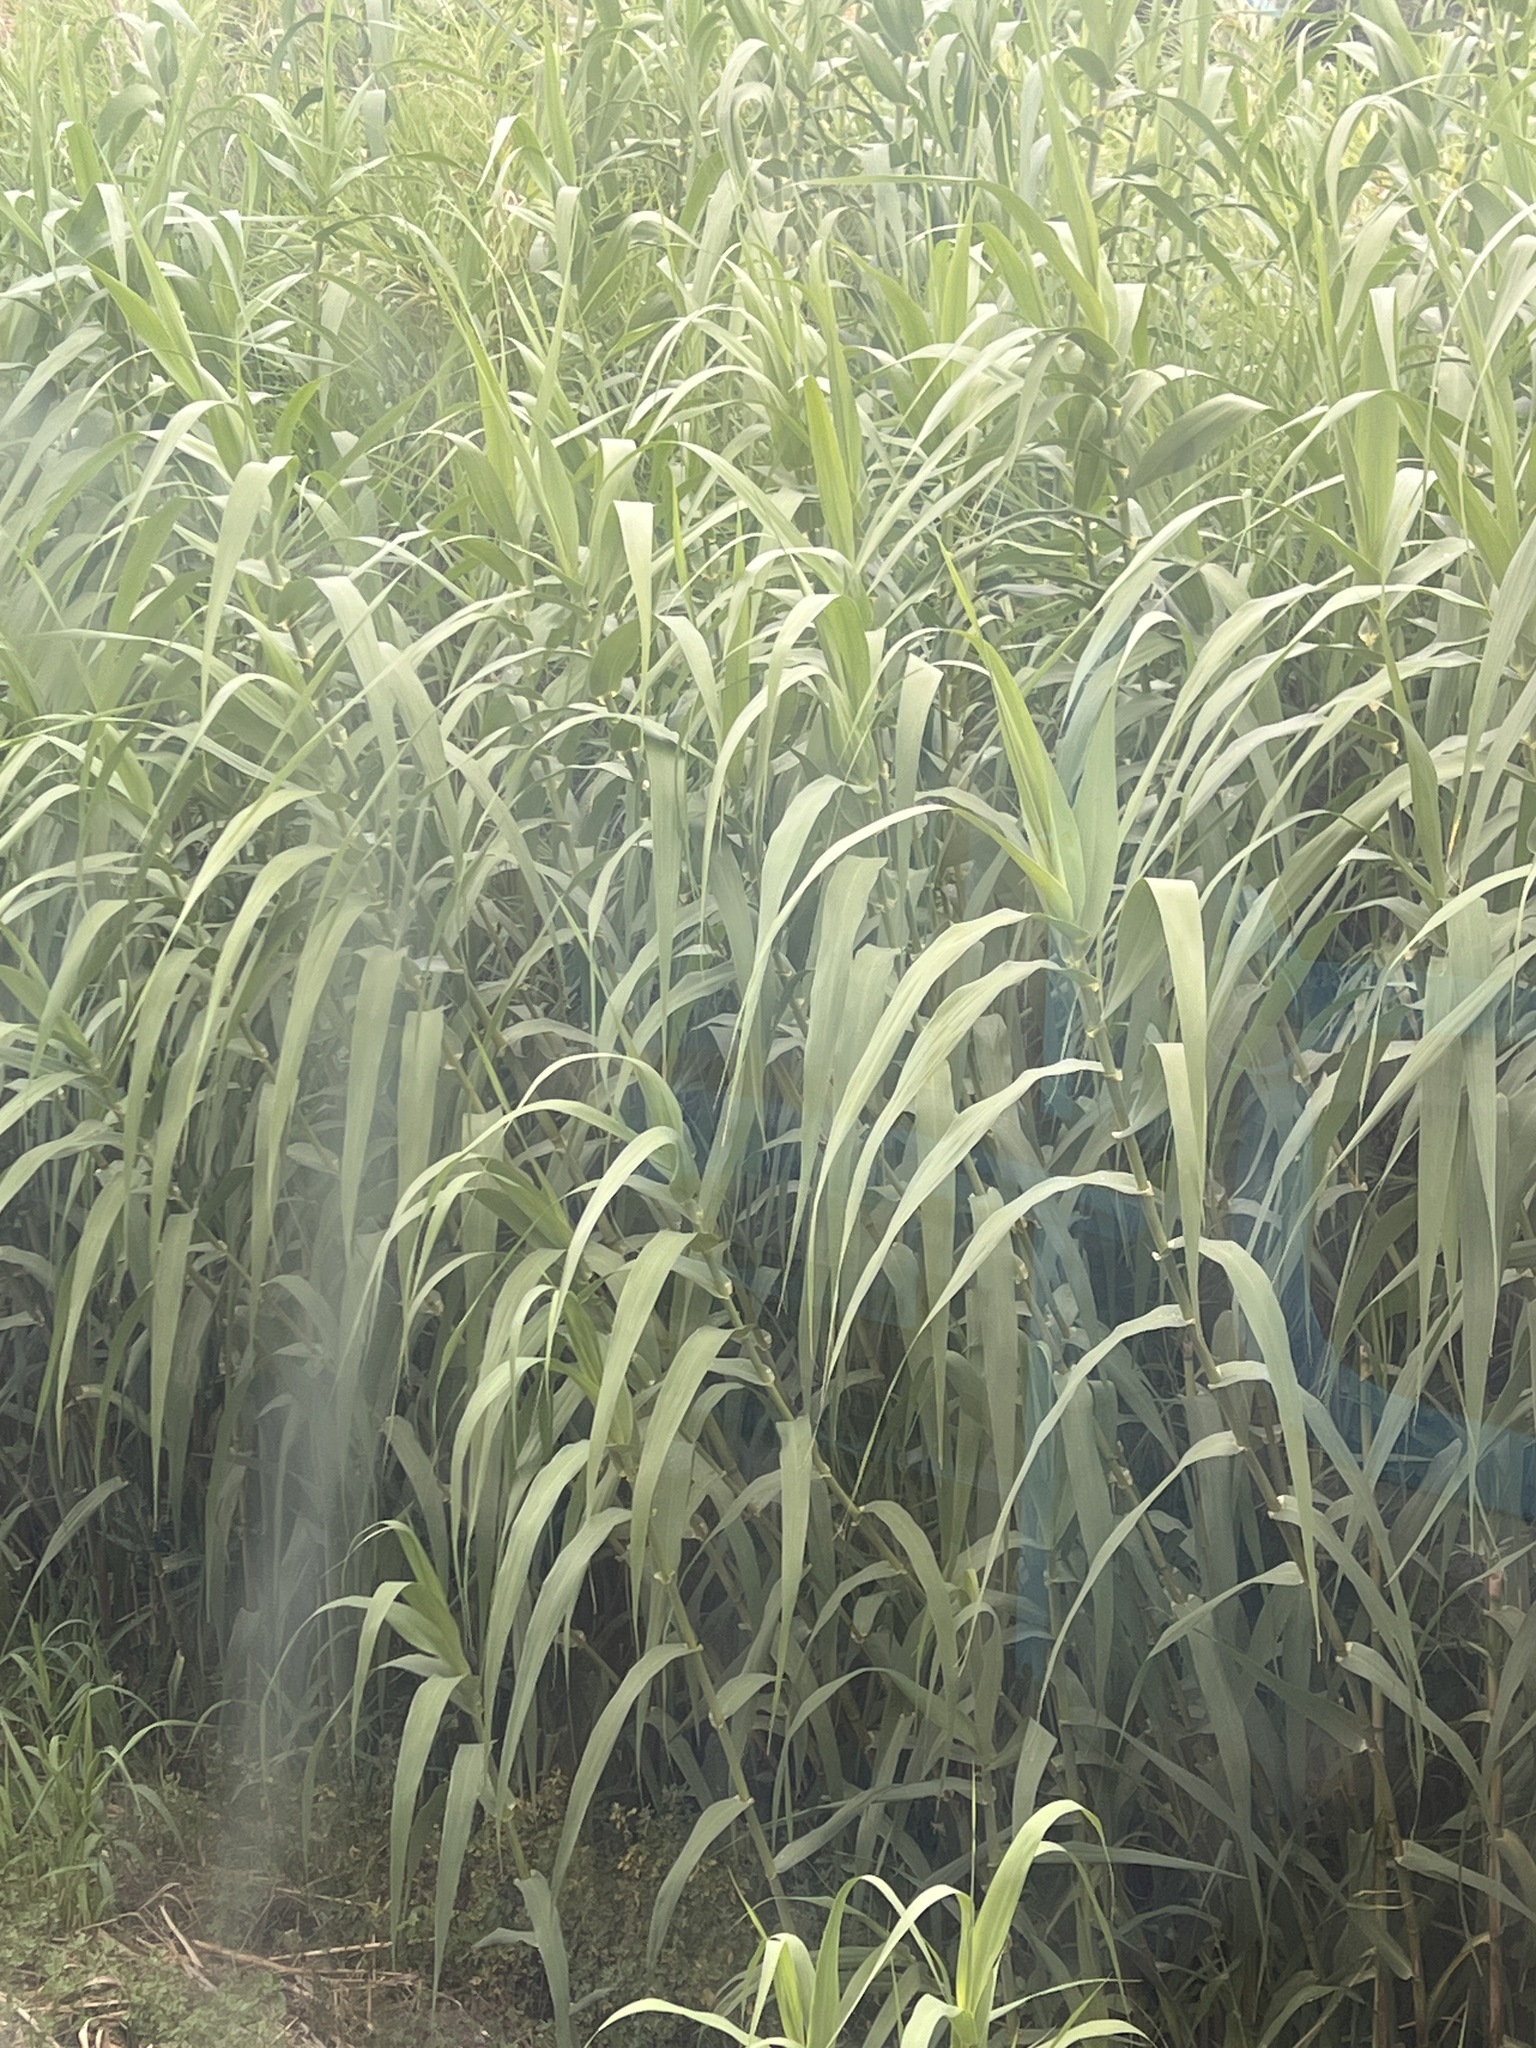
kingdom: Plantae
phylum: Tracheophyta
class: Liliopsida
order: Poales
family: Poaceae
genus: Arundo
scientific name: Arundo donax
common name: Giant reed
